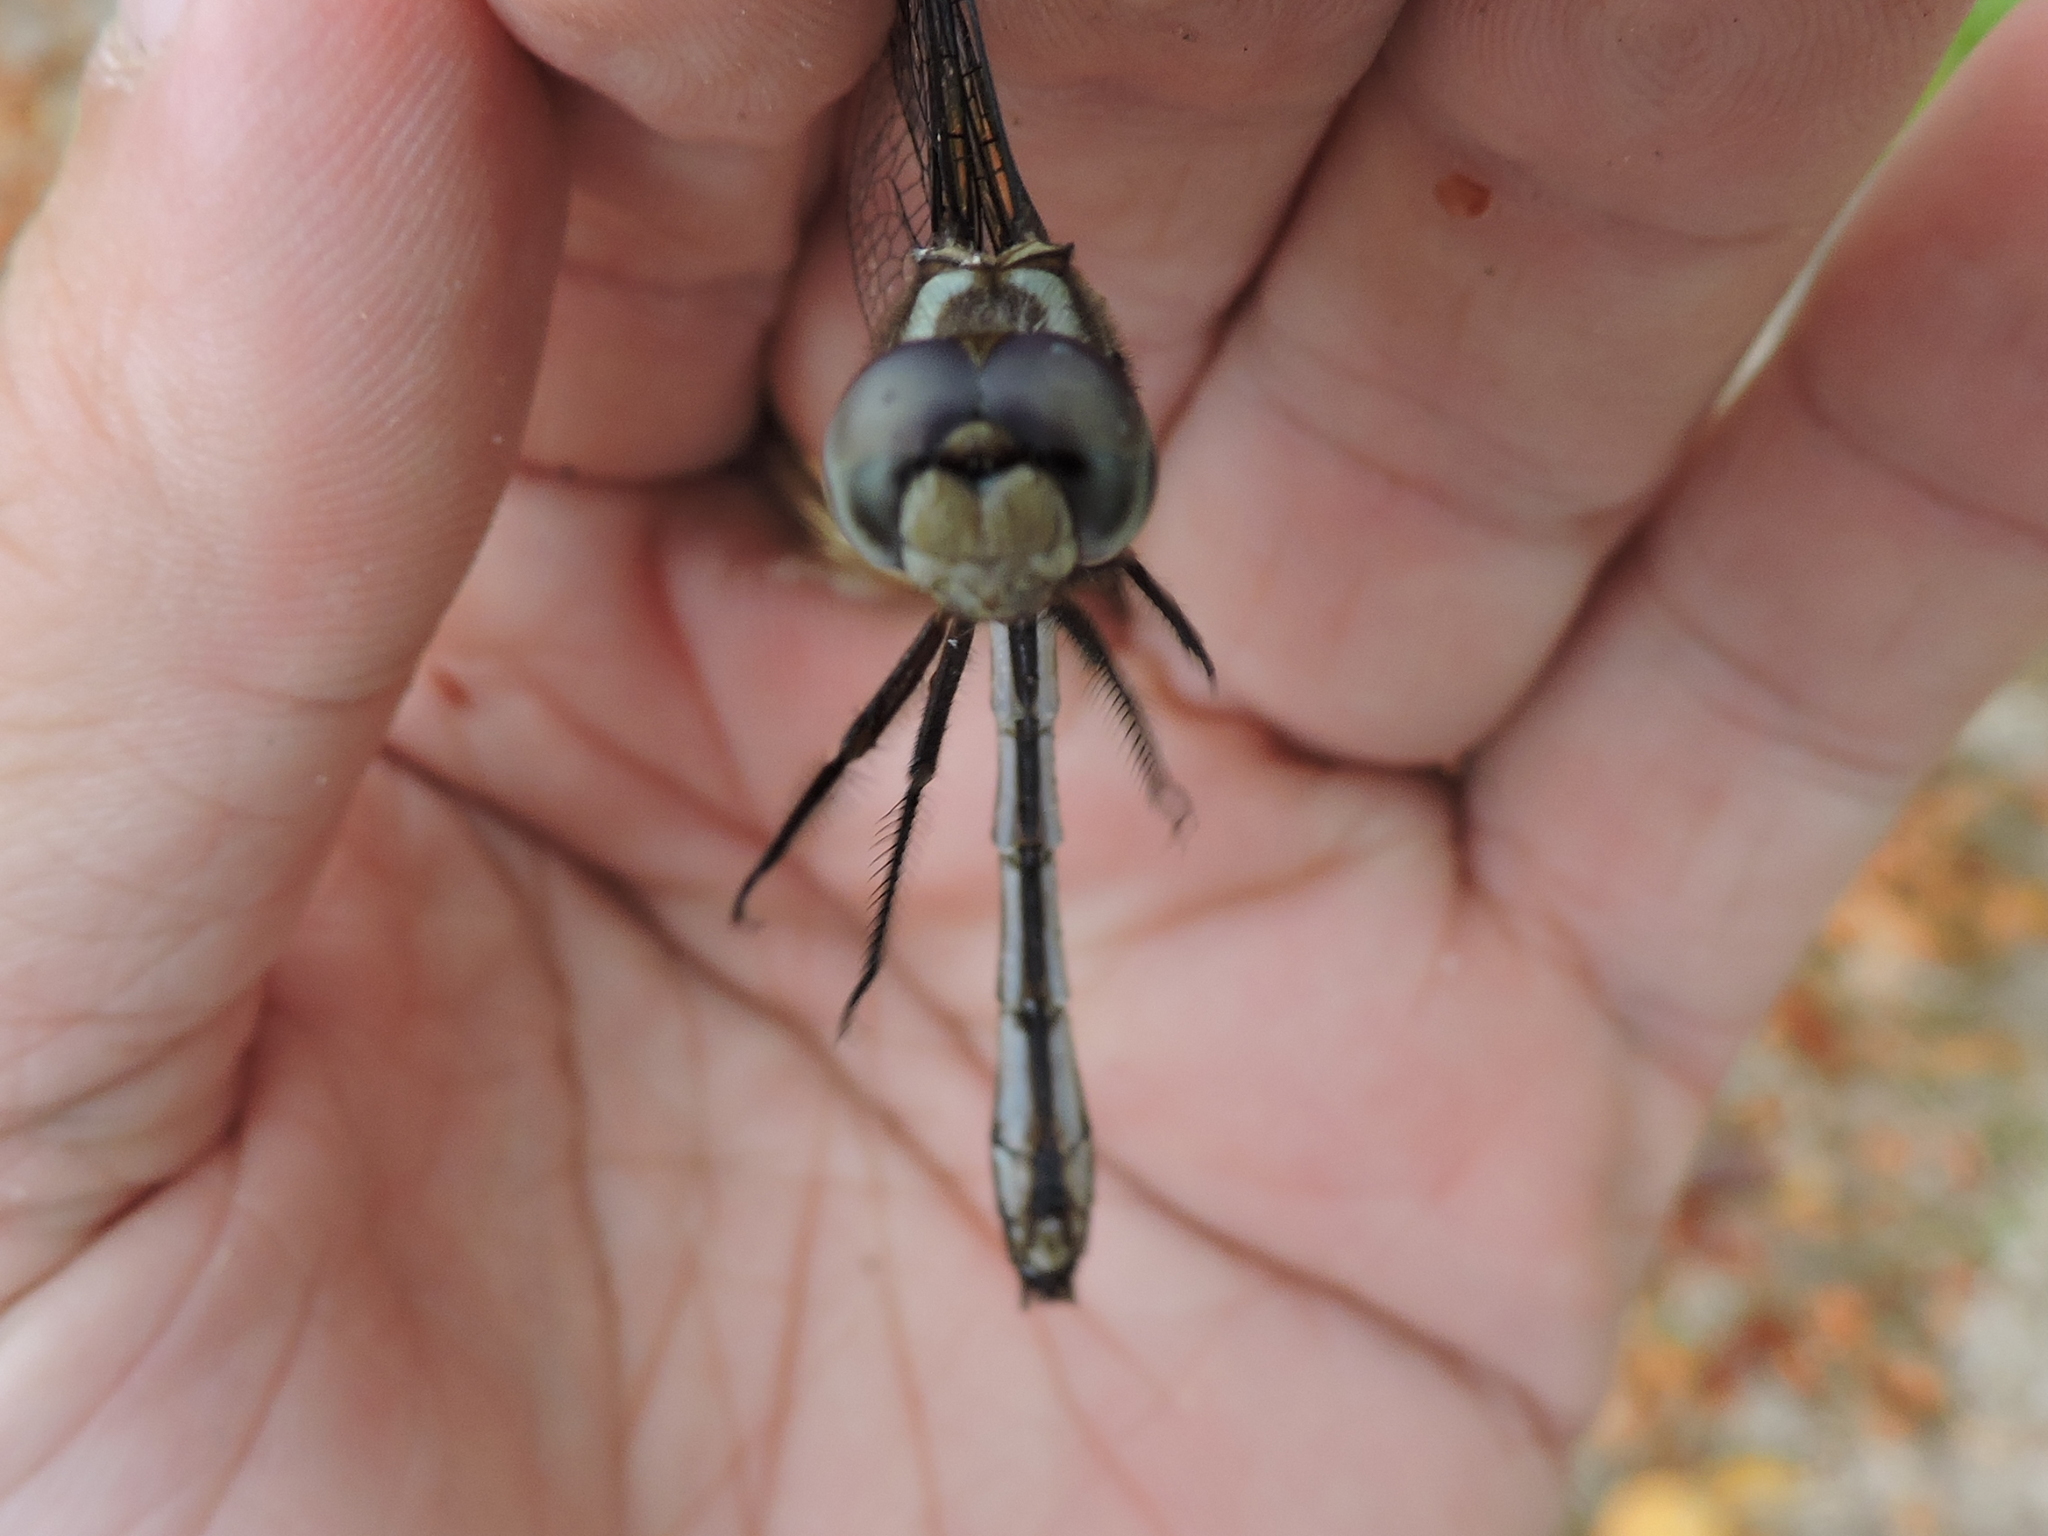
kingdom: Animalia
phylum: Arthropoda
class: Insecta
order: Odonata
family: Libellulidae
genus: Brechmorhoga
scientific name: Brechmorhoga mendax
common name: Pale-faced clubskimmer
